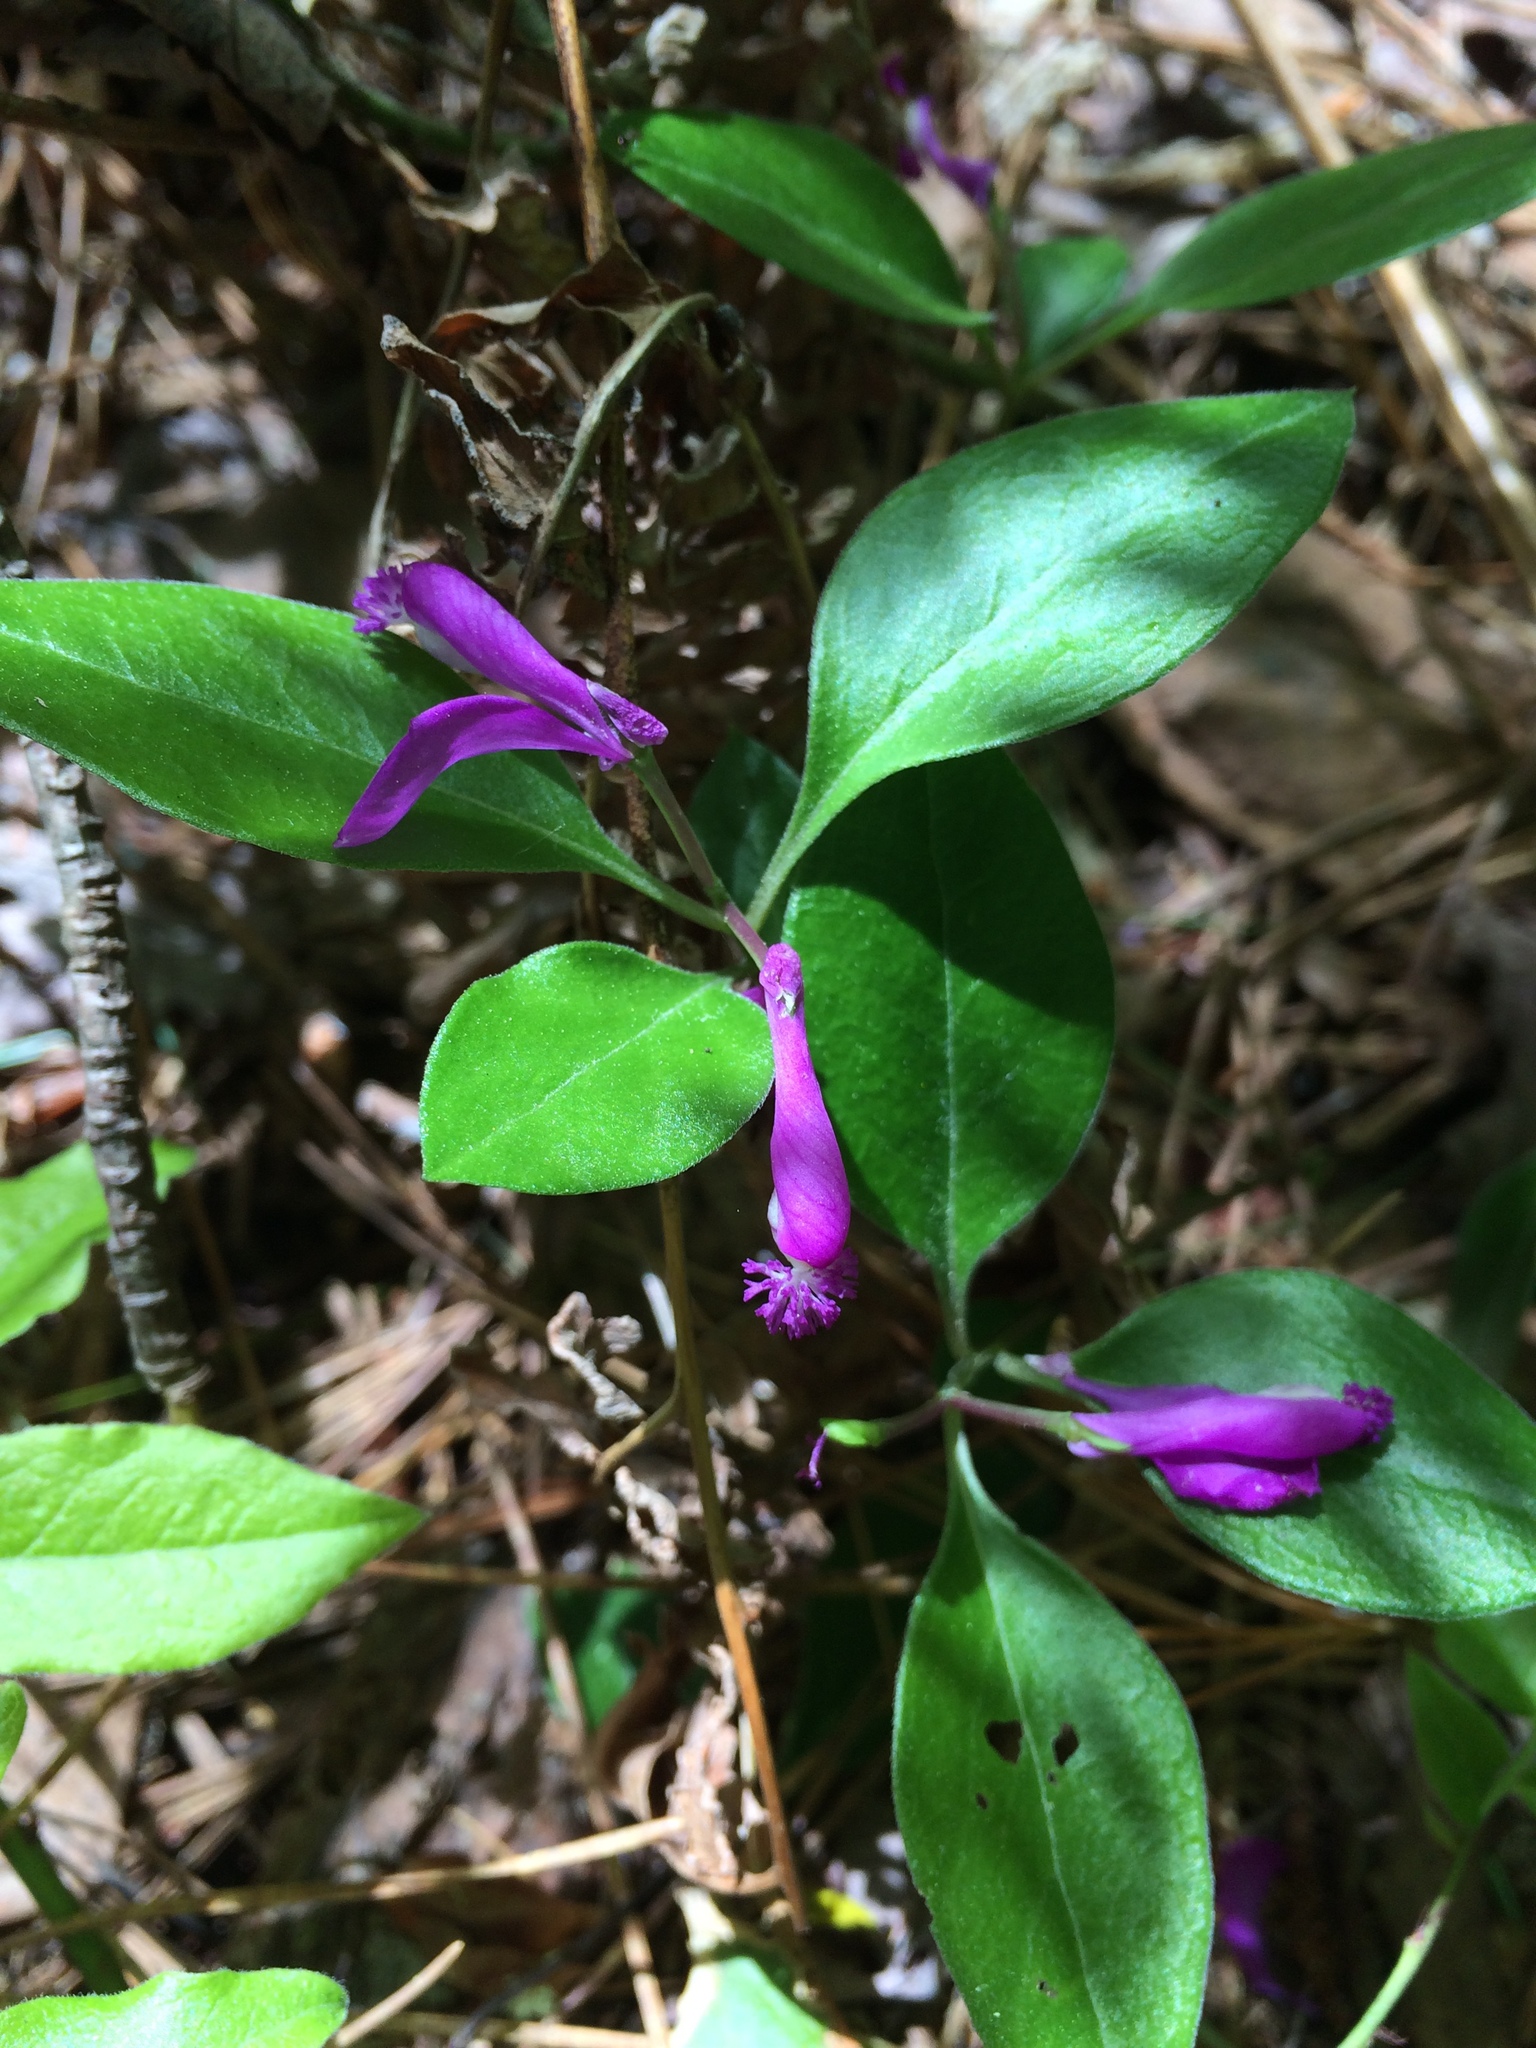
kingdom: Plantae
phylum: Tracheophyta
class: Magnoliopsida
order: Fabales
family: Polygalaceae
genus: Polygaloides
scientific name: Polygaloides paucifolia
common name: Bird-on-the-wing
